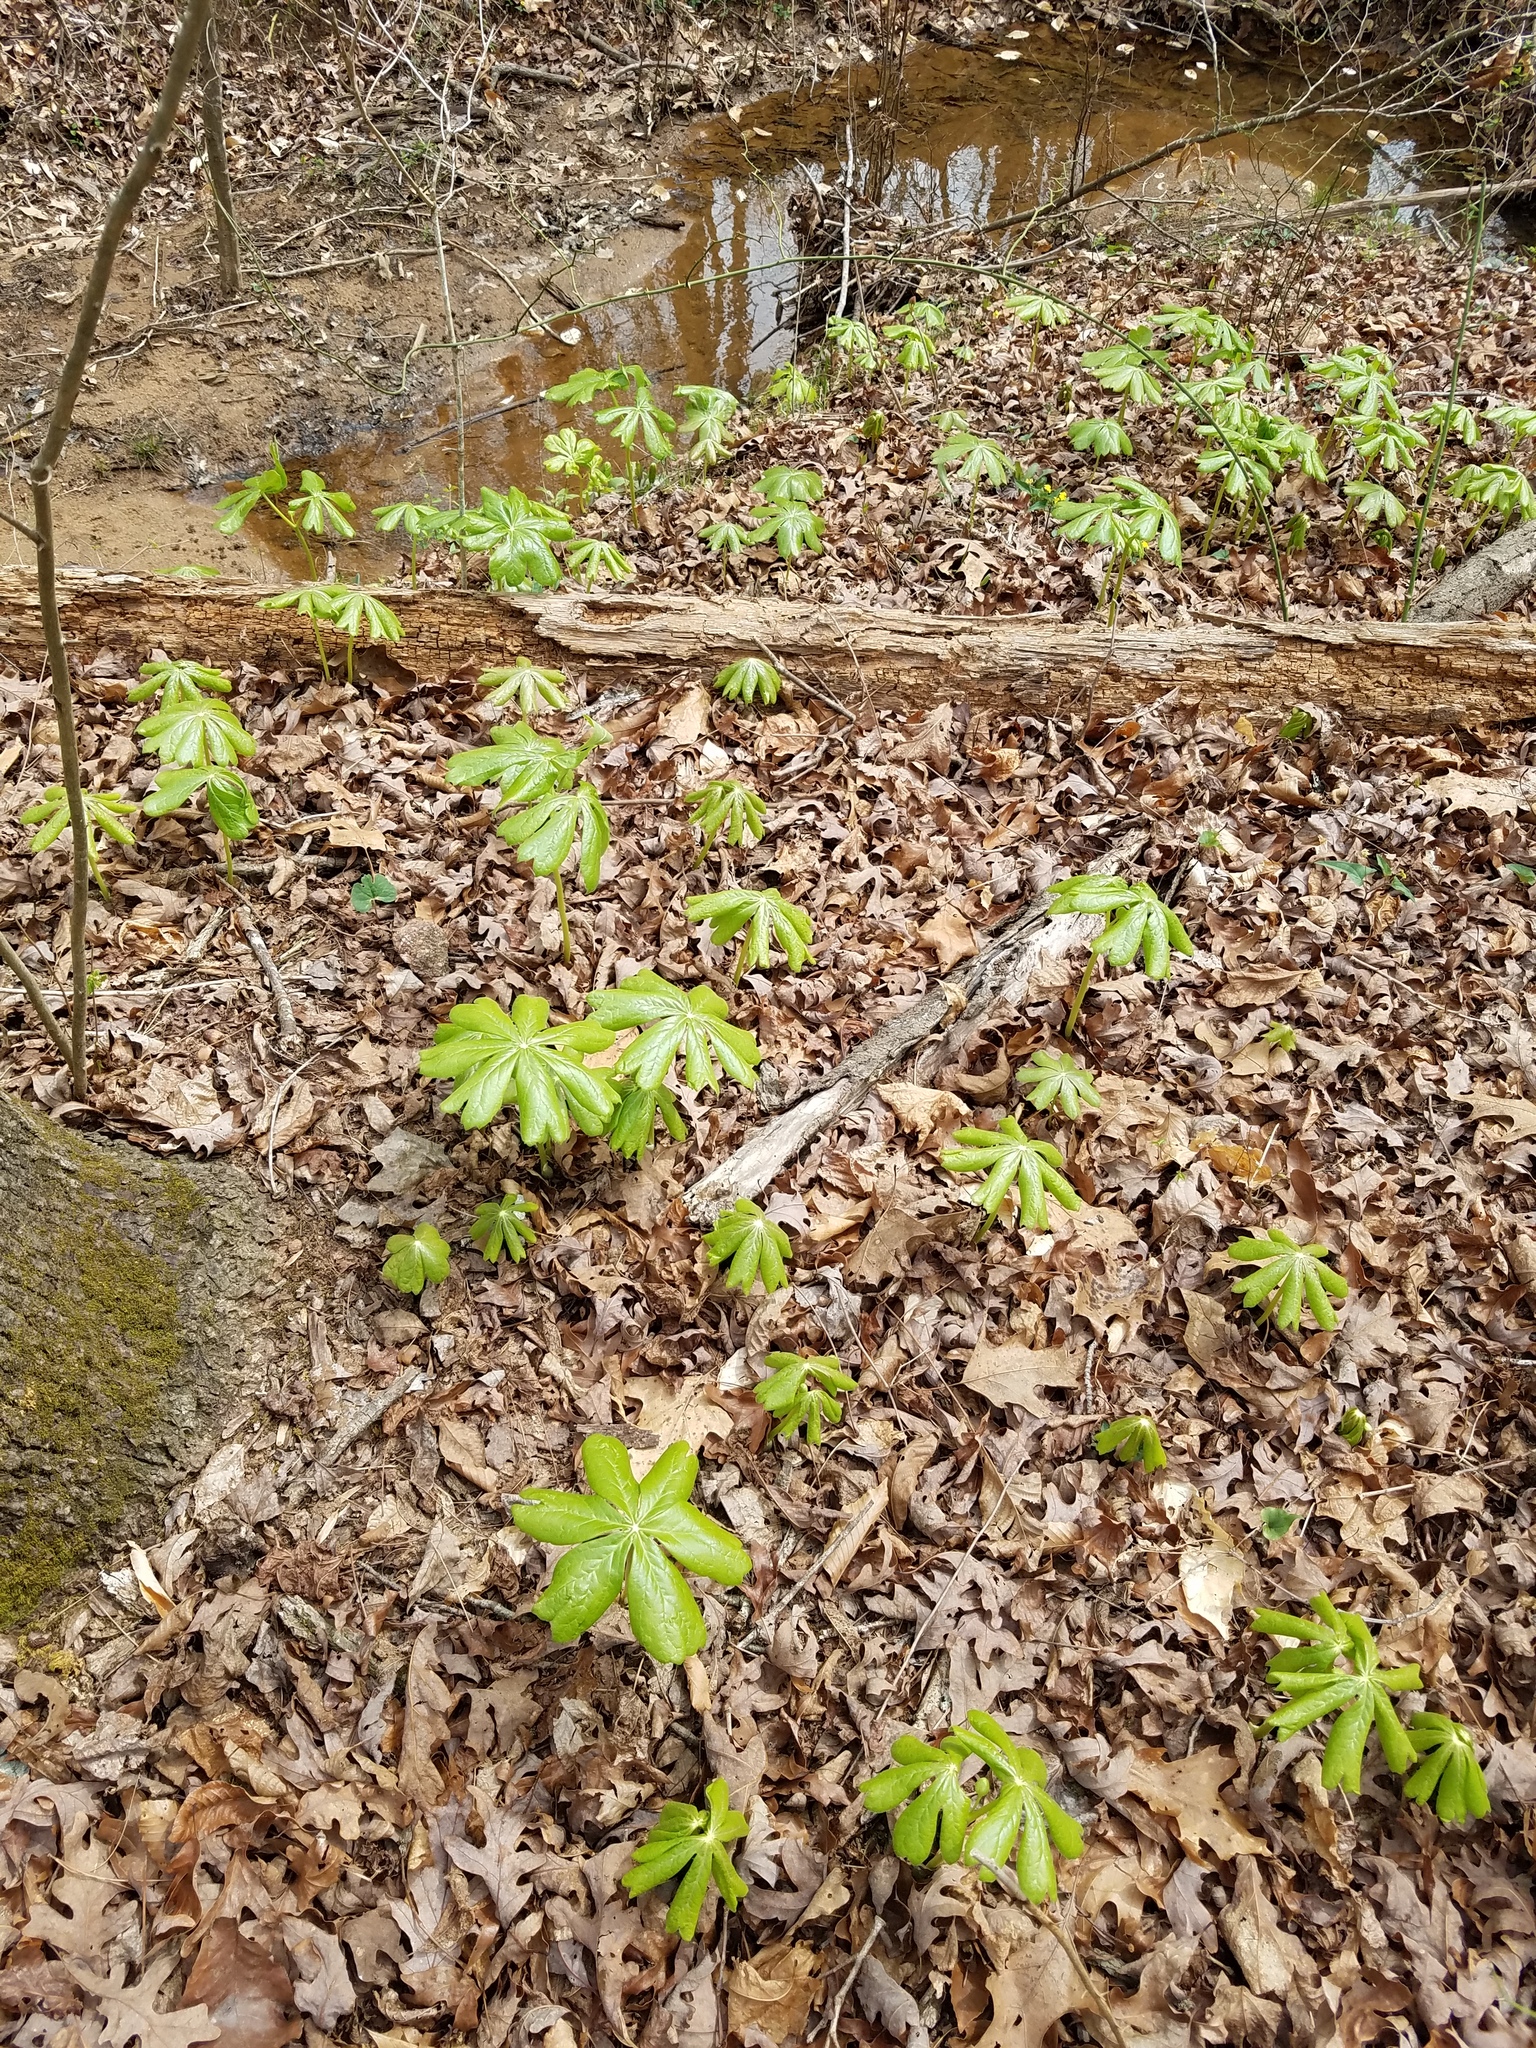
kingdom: Plantae
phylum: Tracheophyta
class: Magnoliopsida
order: Ranunculales
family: Berberidaceae
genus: Podophyllum
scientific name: Podophyllum peltatum
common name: Wild mandrake
